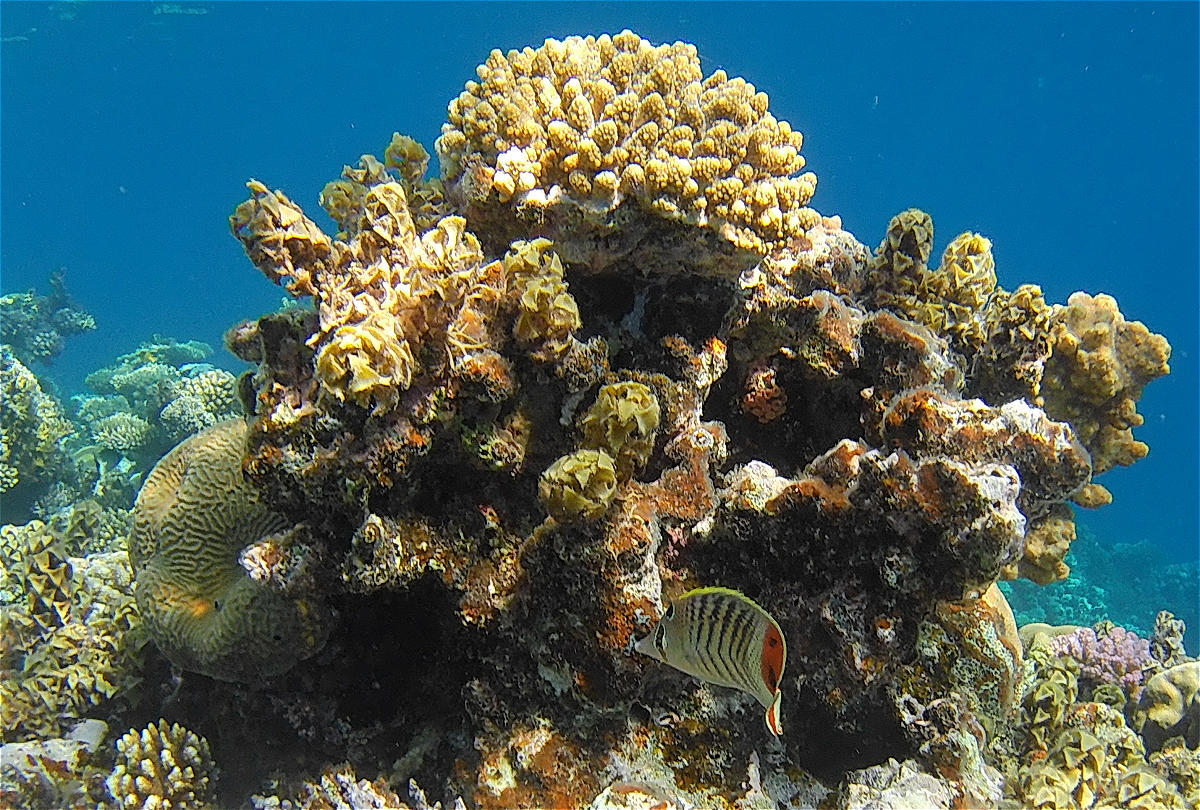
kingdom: Animalia
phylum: Chordata
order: Perciformes
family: Chaetodontidae
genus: Chaetodon
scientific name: Chaetodon paucifasciatus
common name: Crown butterflyfish
